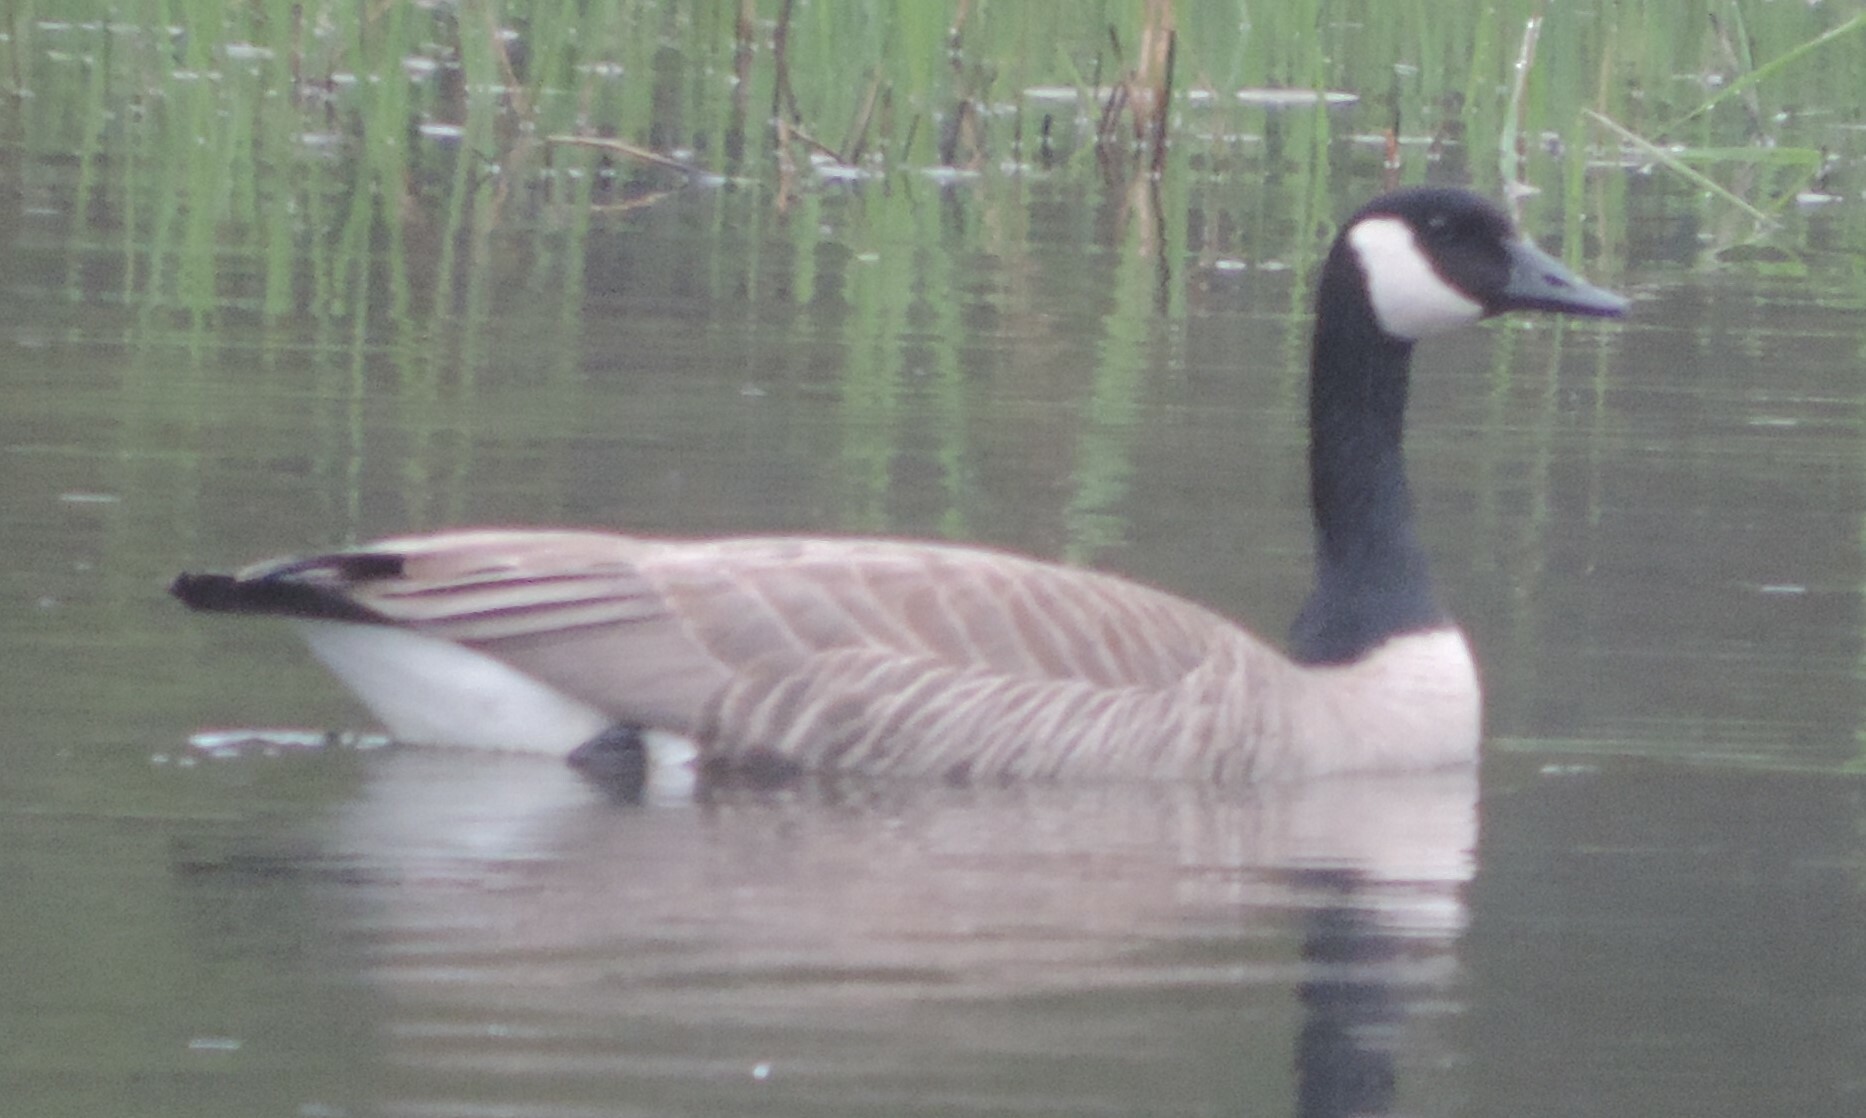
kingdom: Animalia
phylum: Chordata
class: Aves
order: Anseriformes
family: Anatidae
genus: Branta
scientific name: Branta canadensis
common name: Canada goose
